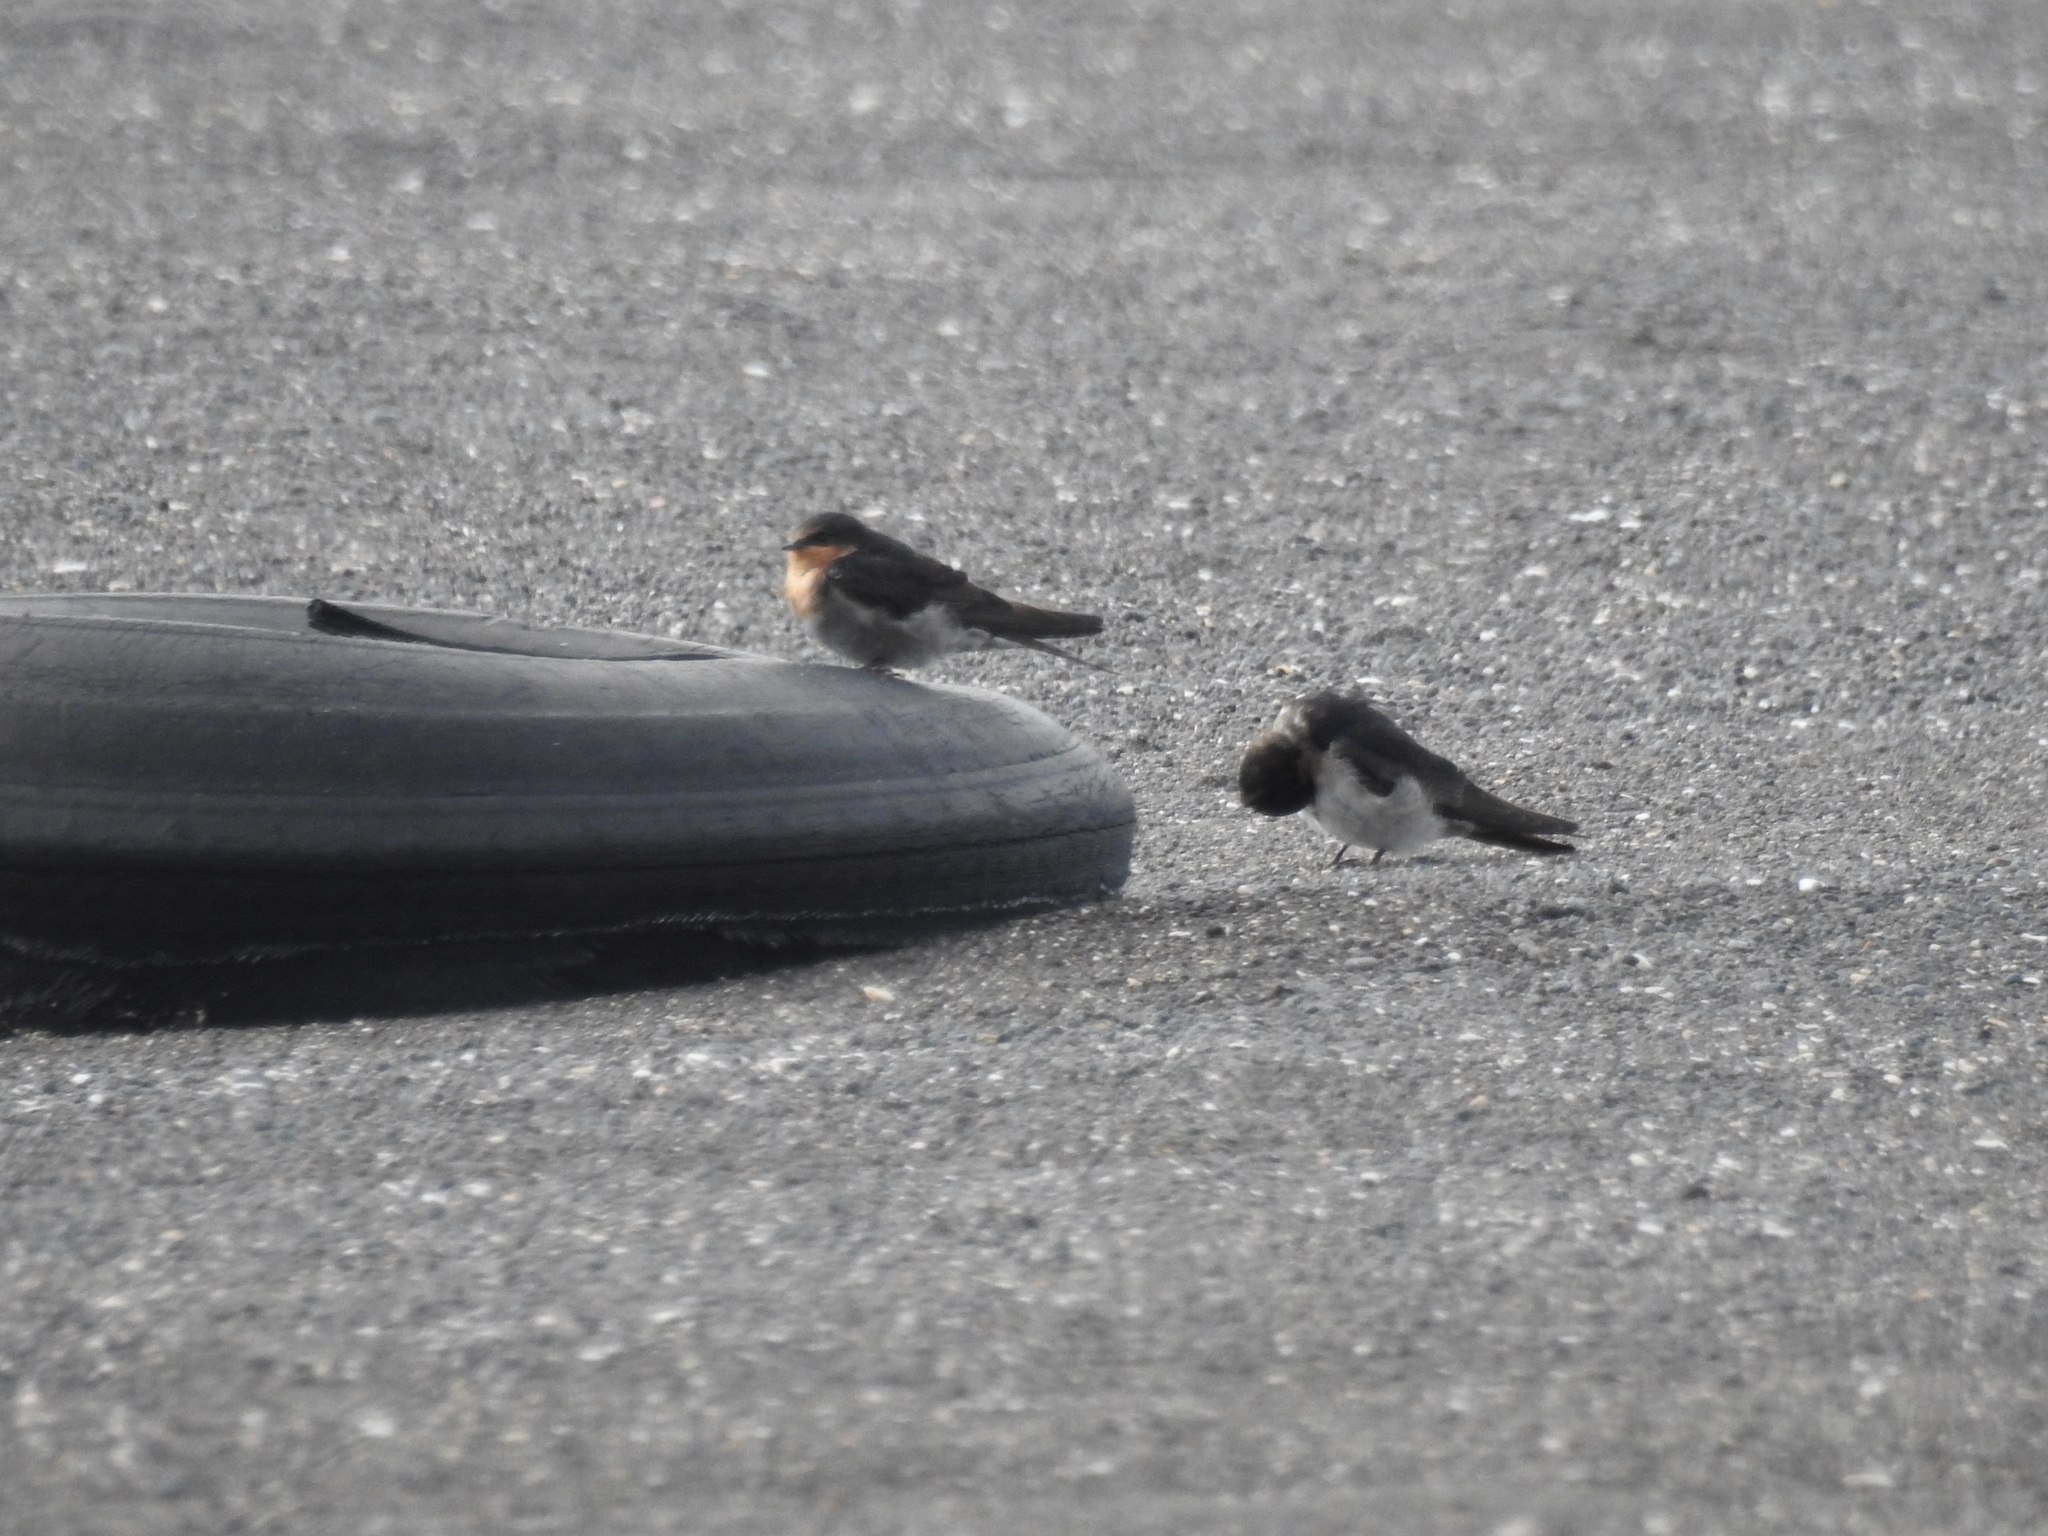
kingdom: Animalia
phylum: Chordata
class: Aves
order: Passeriformes
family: Hirundinidae
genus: Hirundo
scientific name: Hirundo neoxena
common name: Welcome swallow
